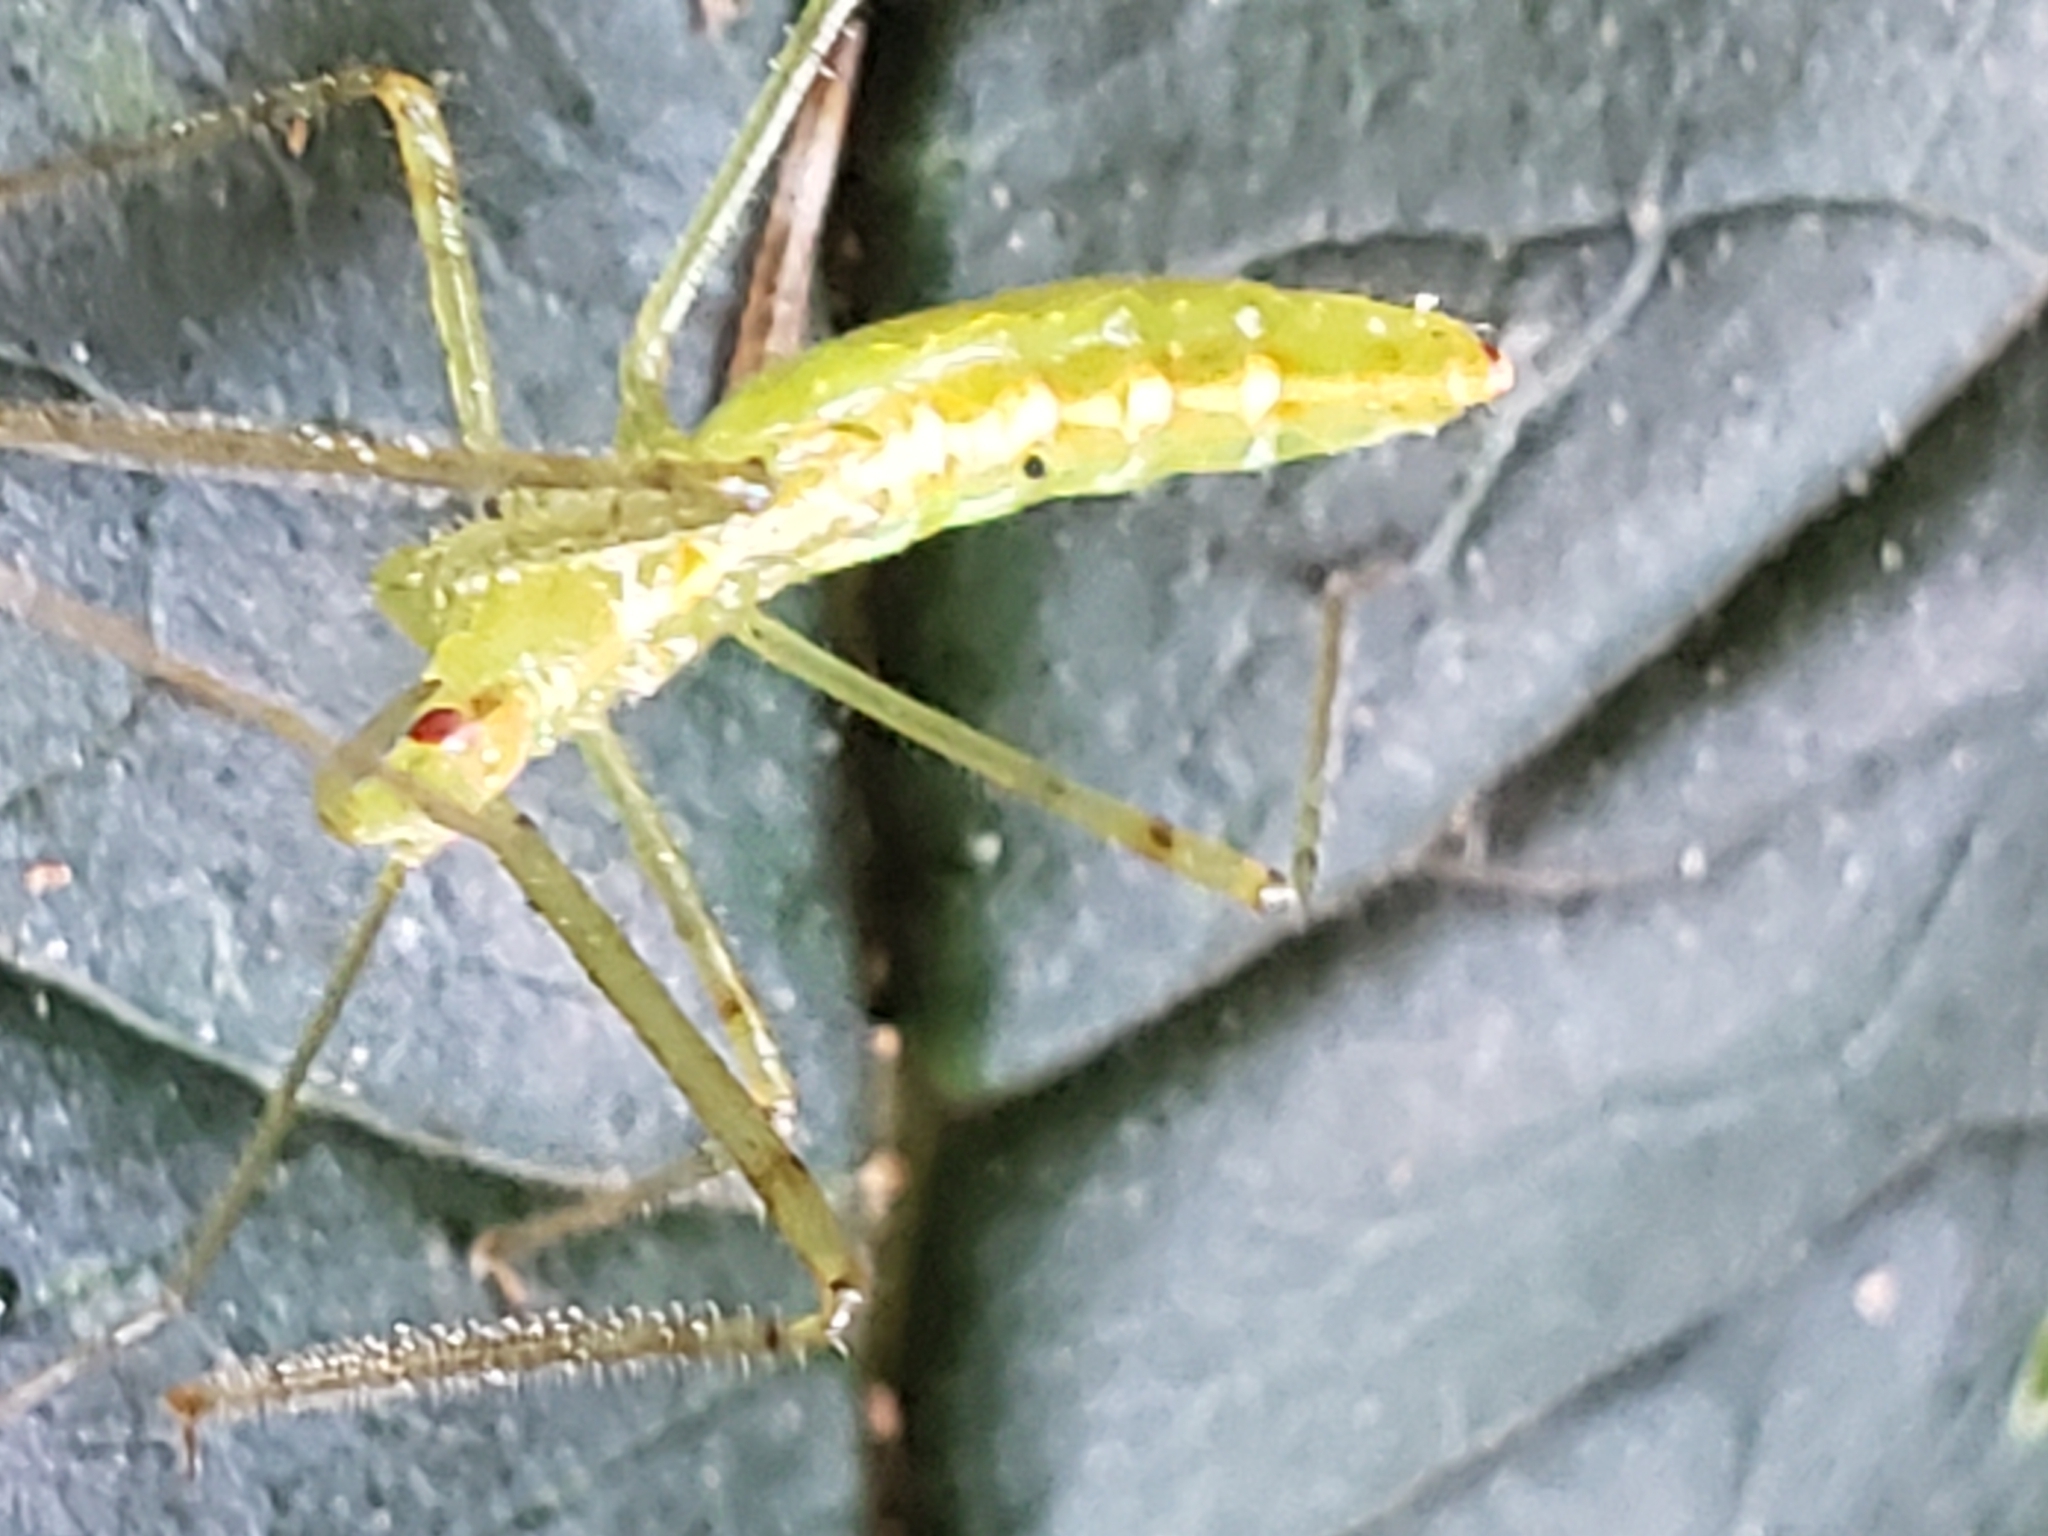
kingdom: Animalia
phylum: Arthropoda
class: Insecta
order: Hemiptera
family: Reduviidae
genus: Zelus
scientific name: Zelus luridus
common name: Pale green assassin bug
